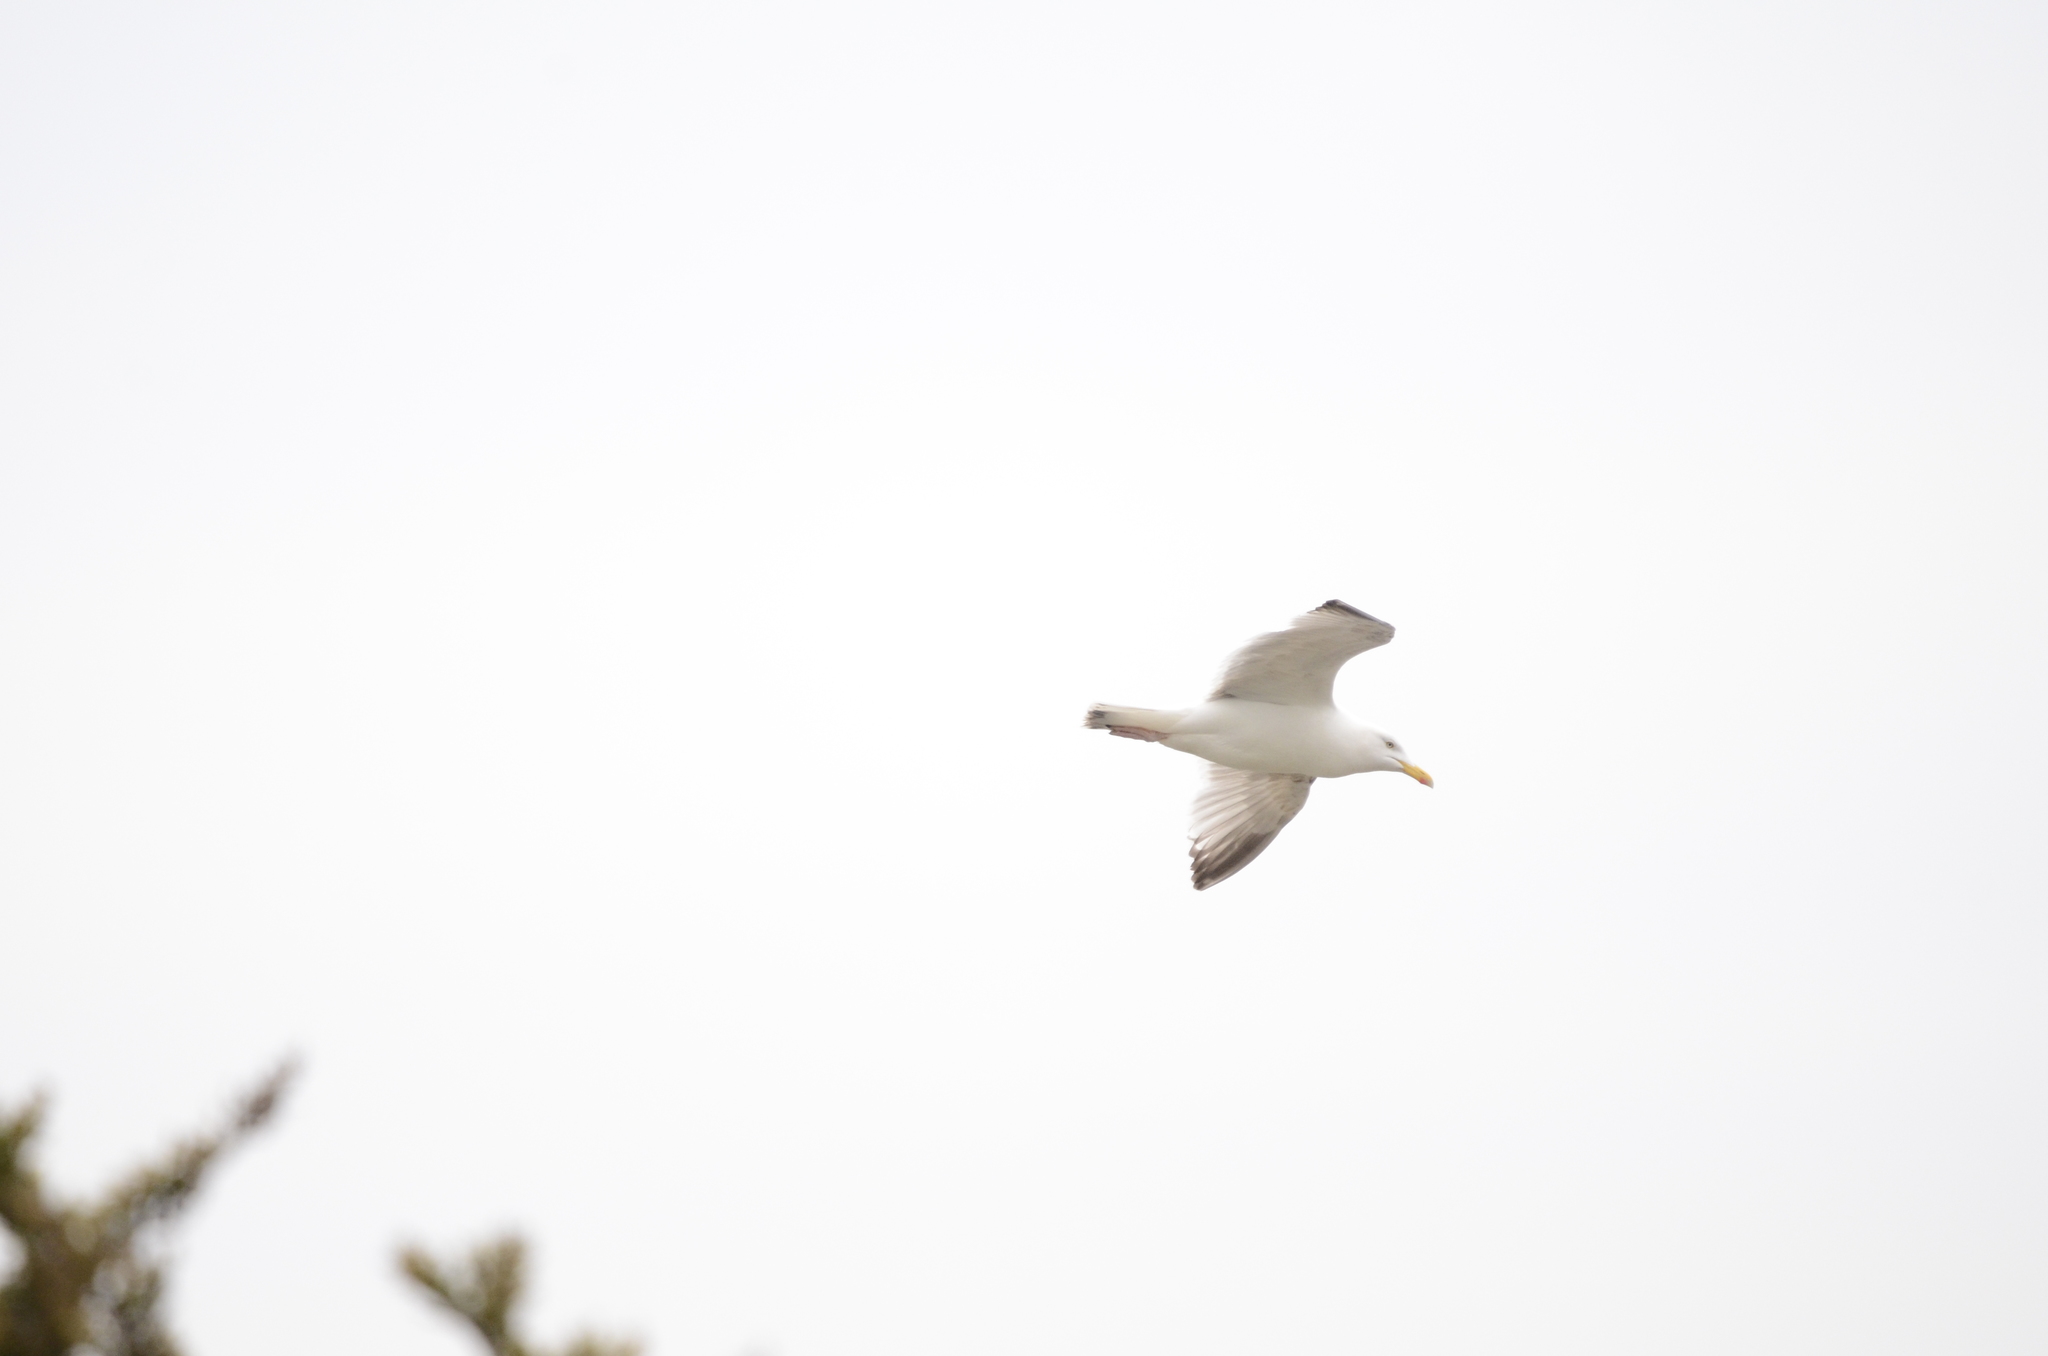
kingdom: Animalia
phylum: Chordata
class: Aves
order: Charadriiformes
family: Laridae
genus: Larus
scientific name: Larus argentatus
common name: Herring gull
